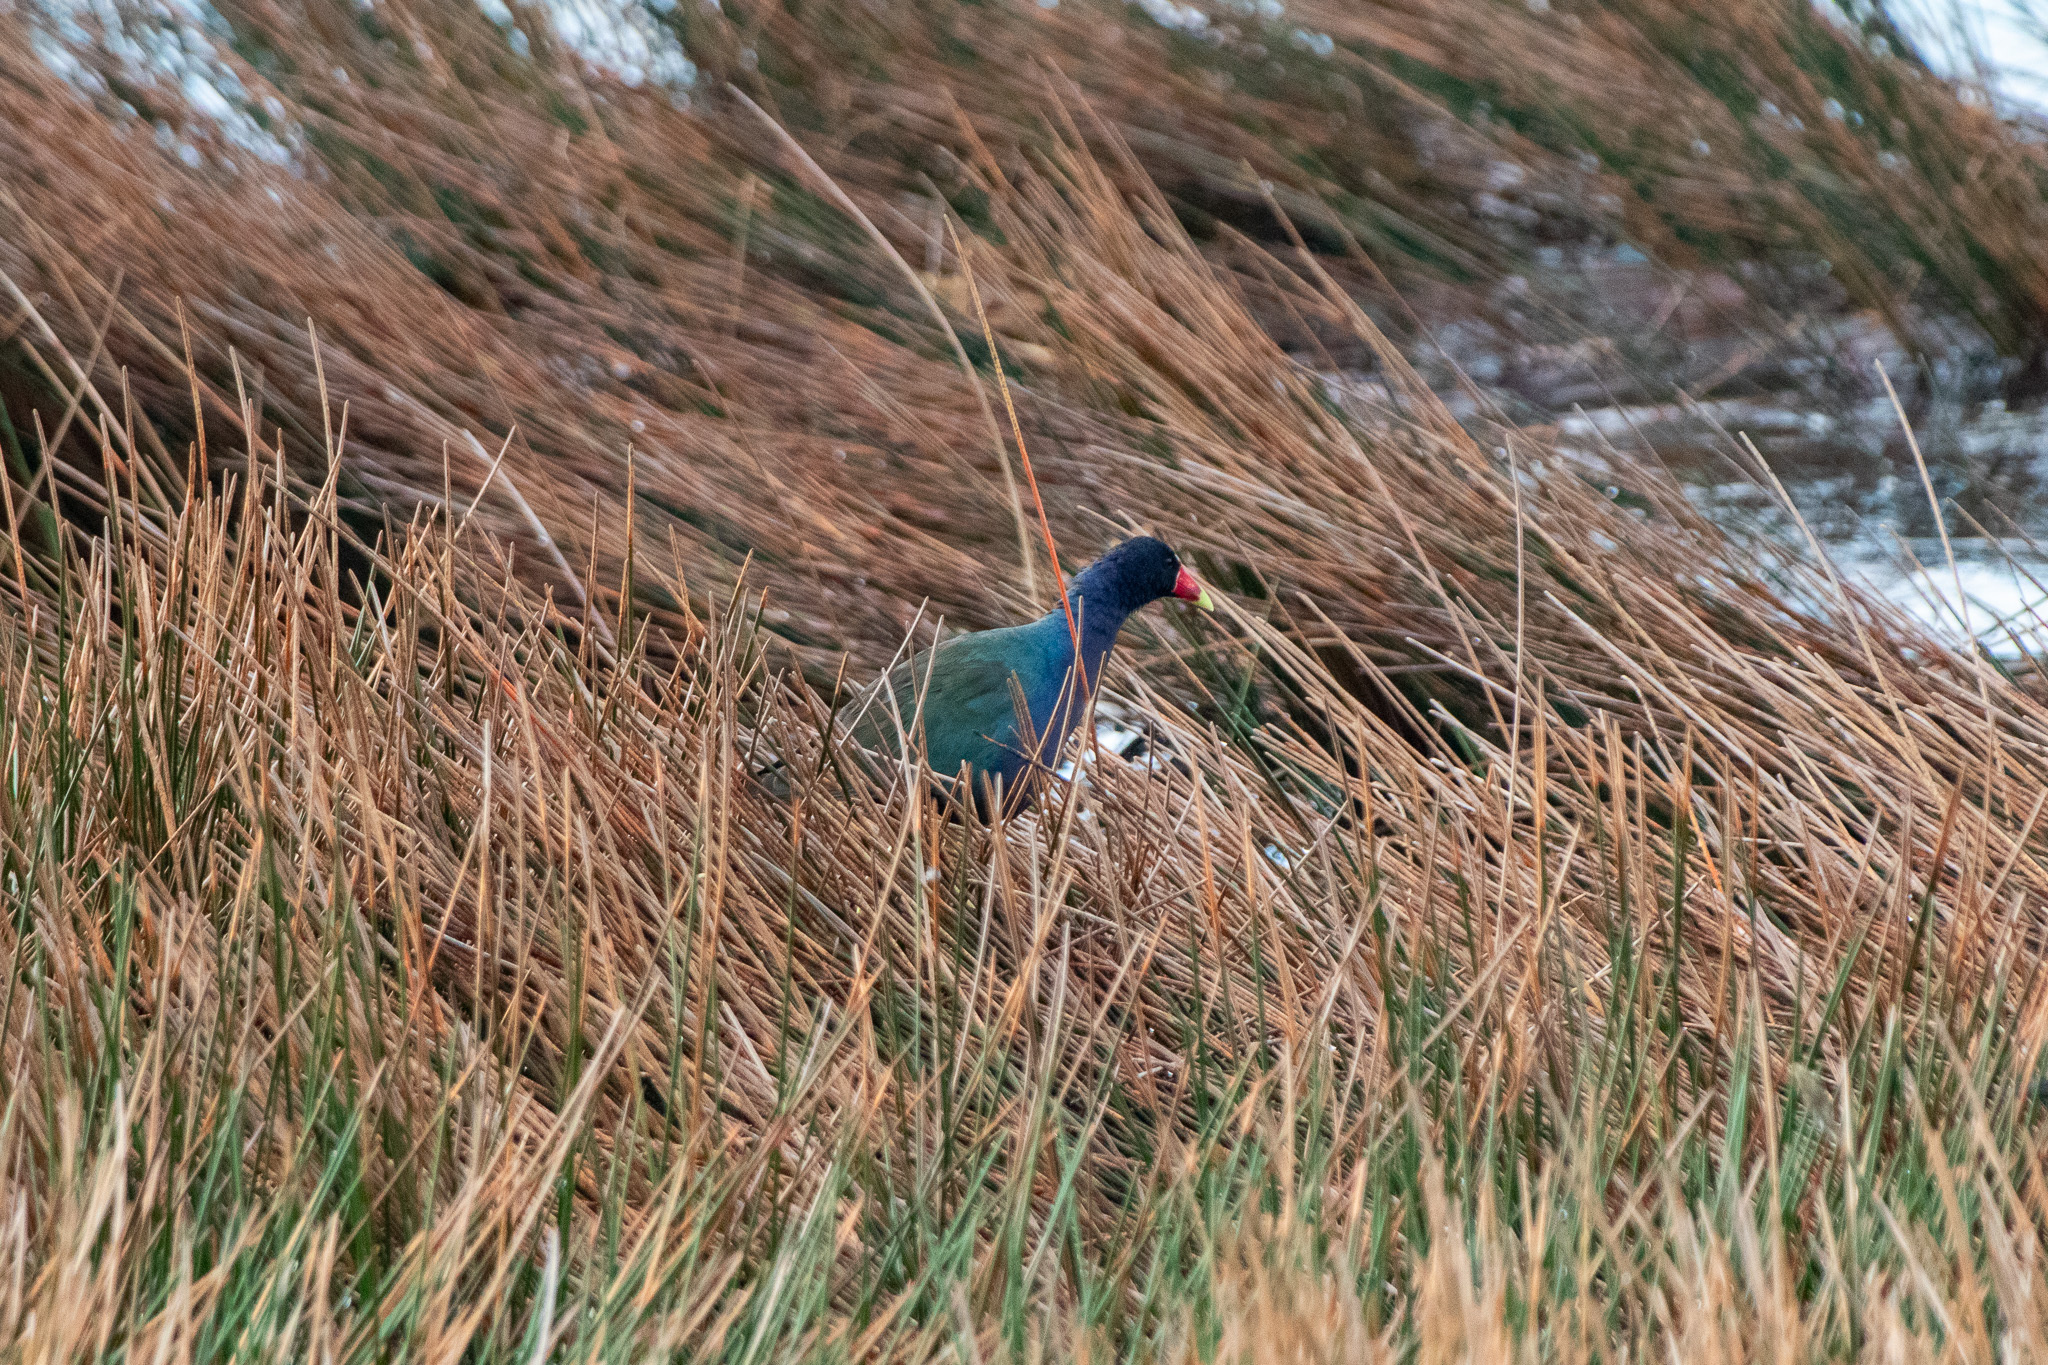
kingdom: Animalia
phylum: Chordata
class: Aves
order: Gruiformes
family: Rallidae
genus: Porphyrio
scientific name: Porphyrio martinica
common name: Purple gallinule
